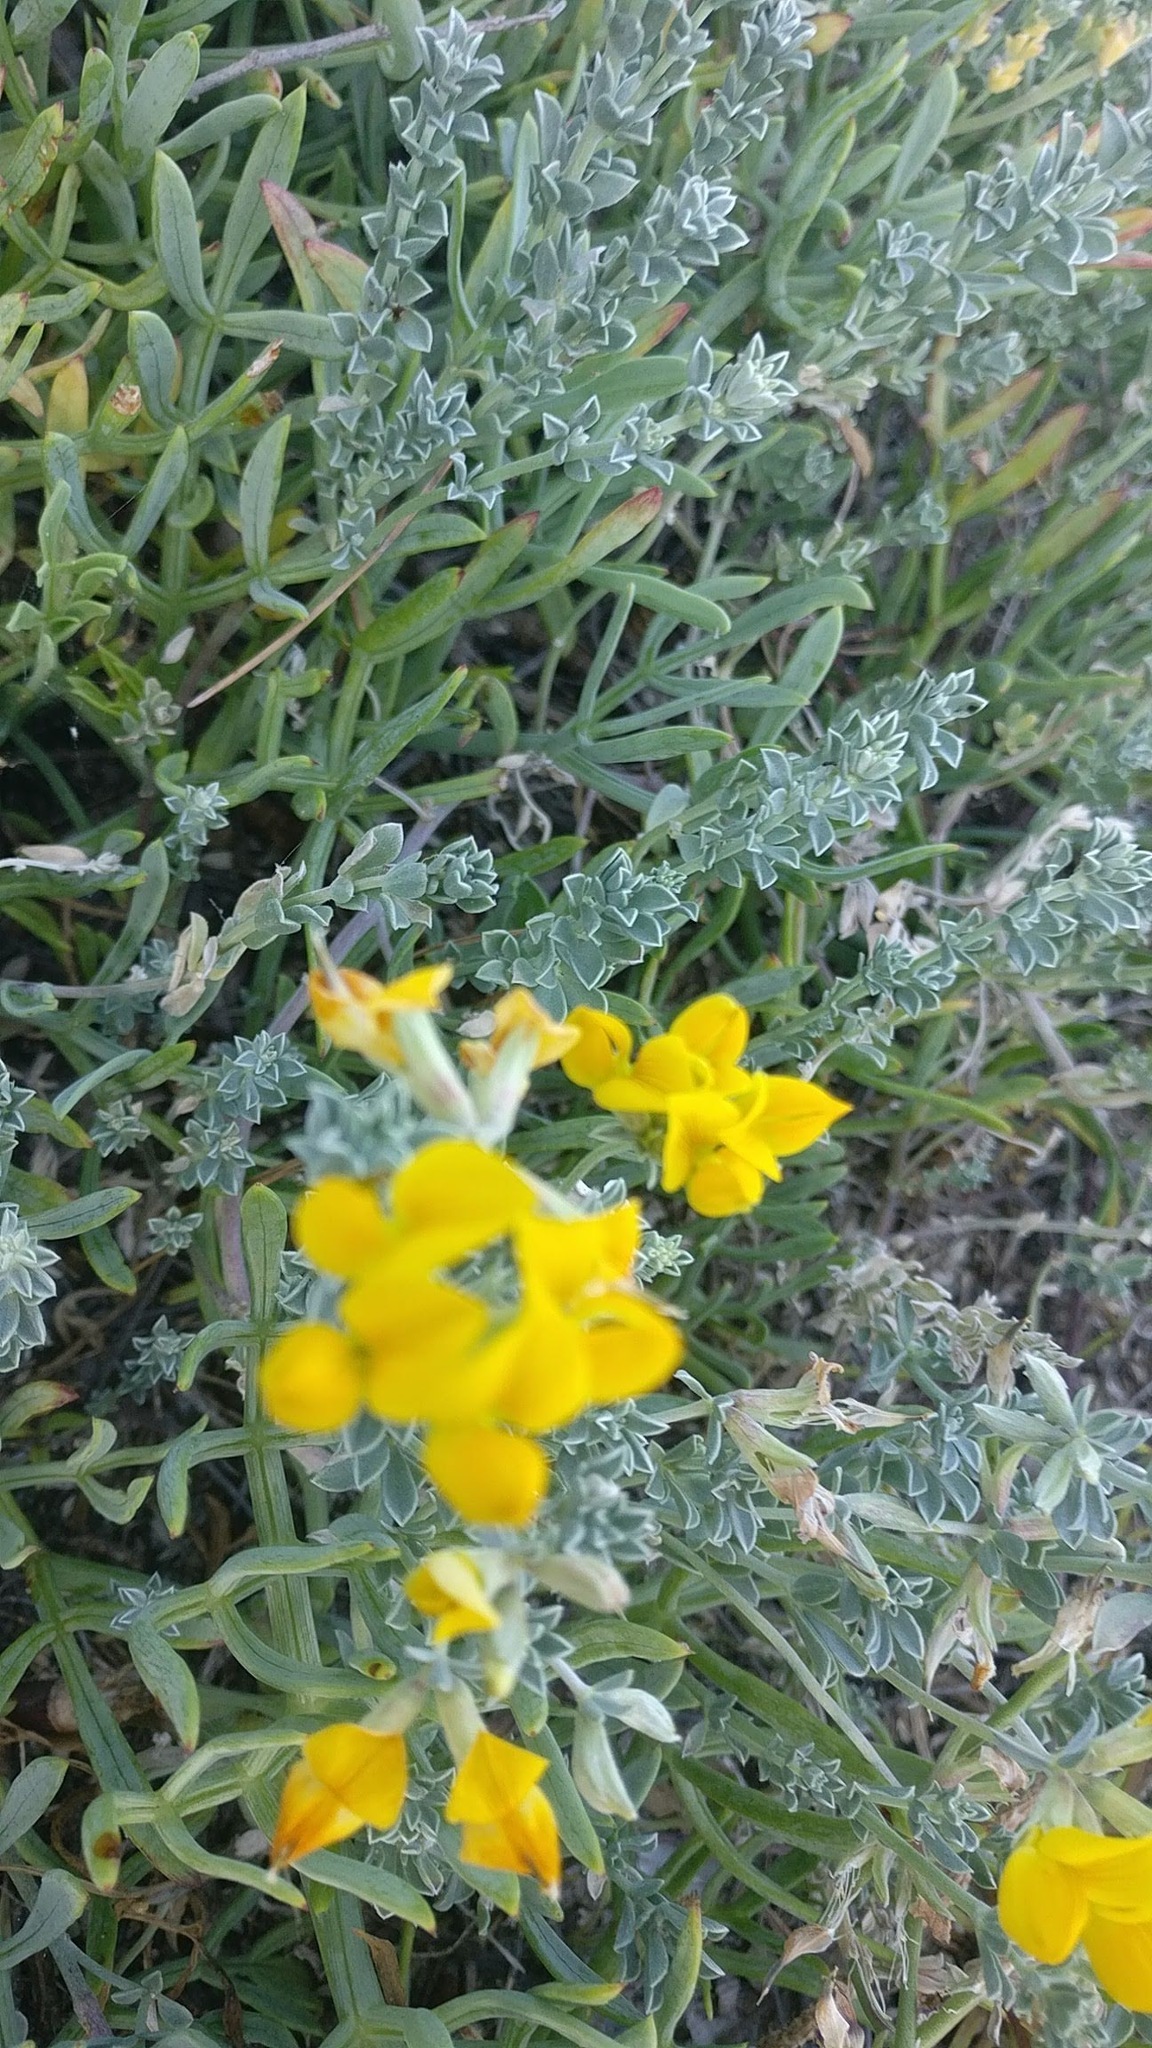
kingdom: Plantae
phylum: Tracheophyta
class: Magnoliopsida
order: Fabales
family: Fabaceae
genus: Lotus
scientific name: Lotus creticus
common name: Cretan bird's-foot trefoil
